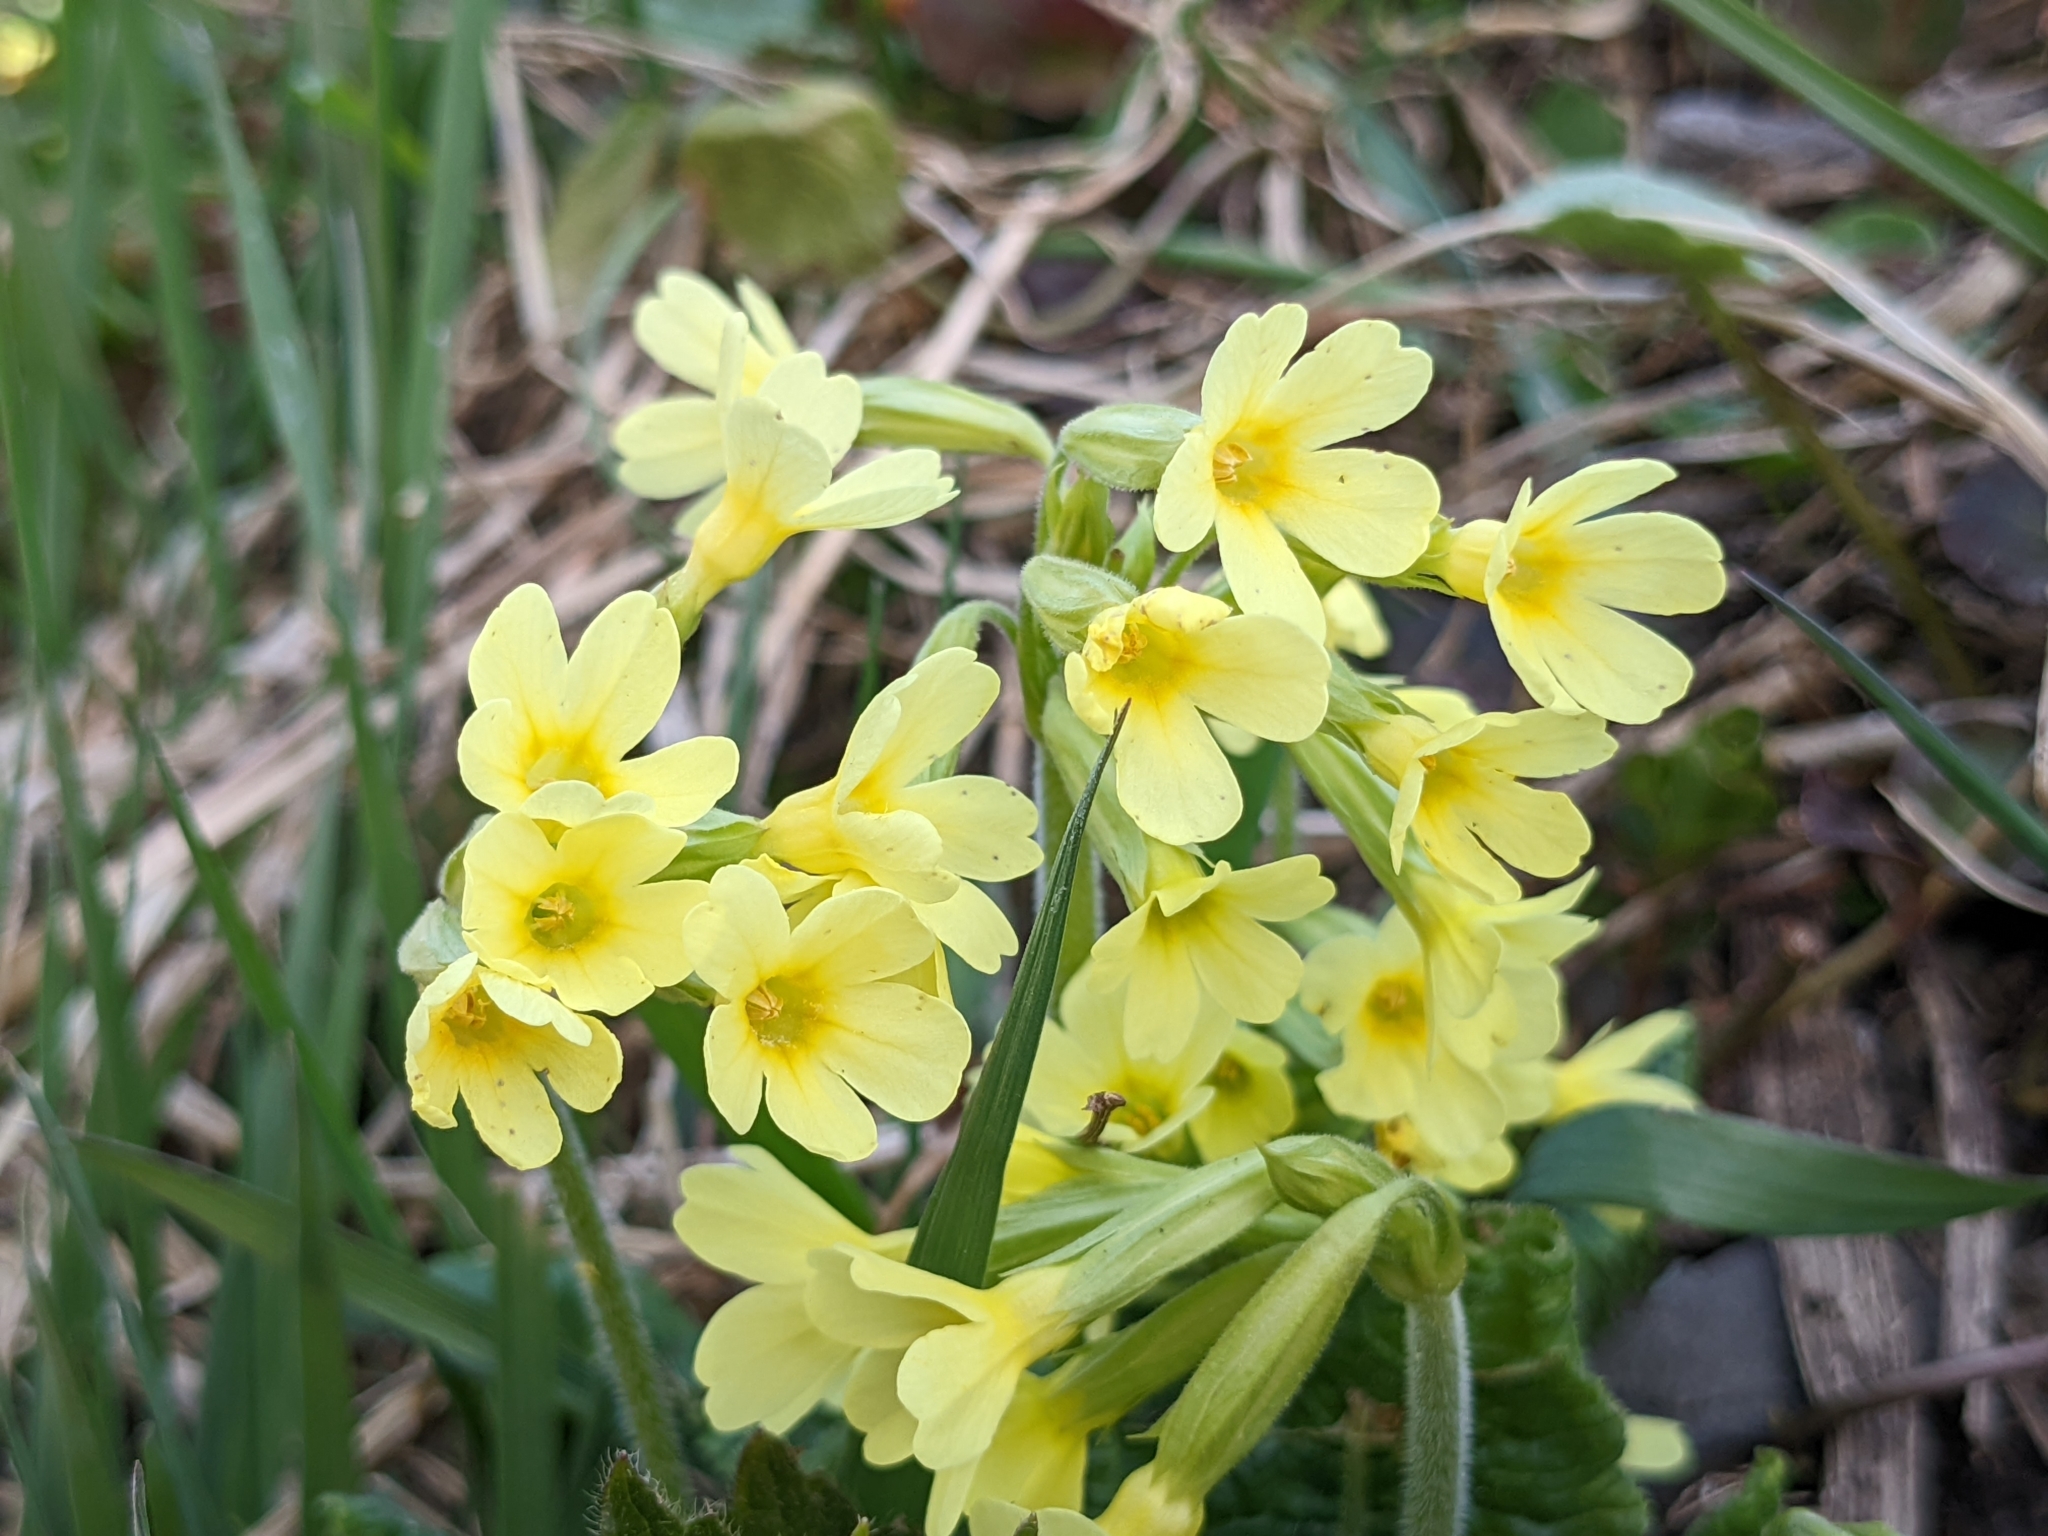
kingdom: Plantae
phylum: Tracheophyta
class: Magnoliopsida
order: Ericales
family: Primulaceae
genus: Primula
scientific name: Primula elatior
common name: Oxlip
